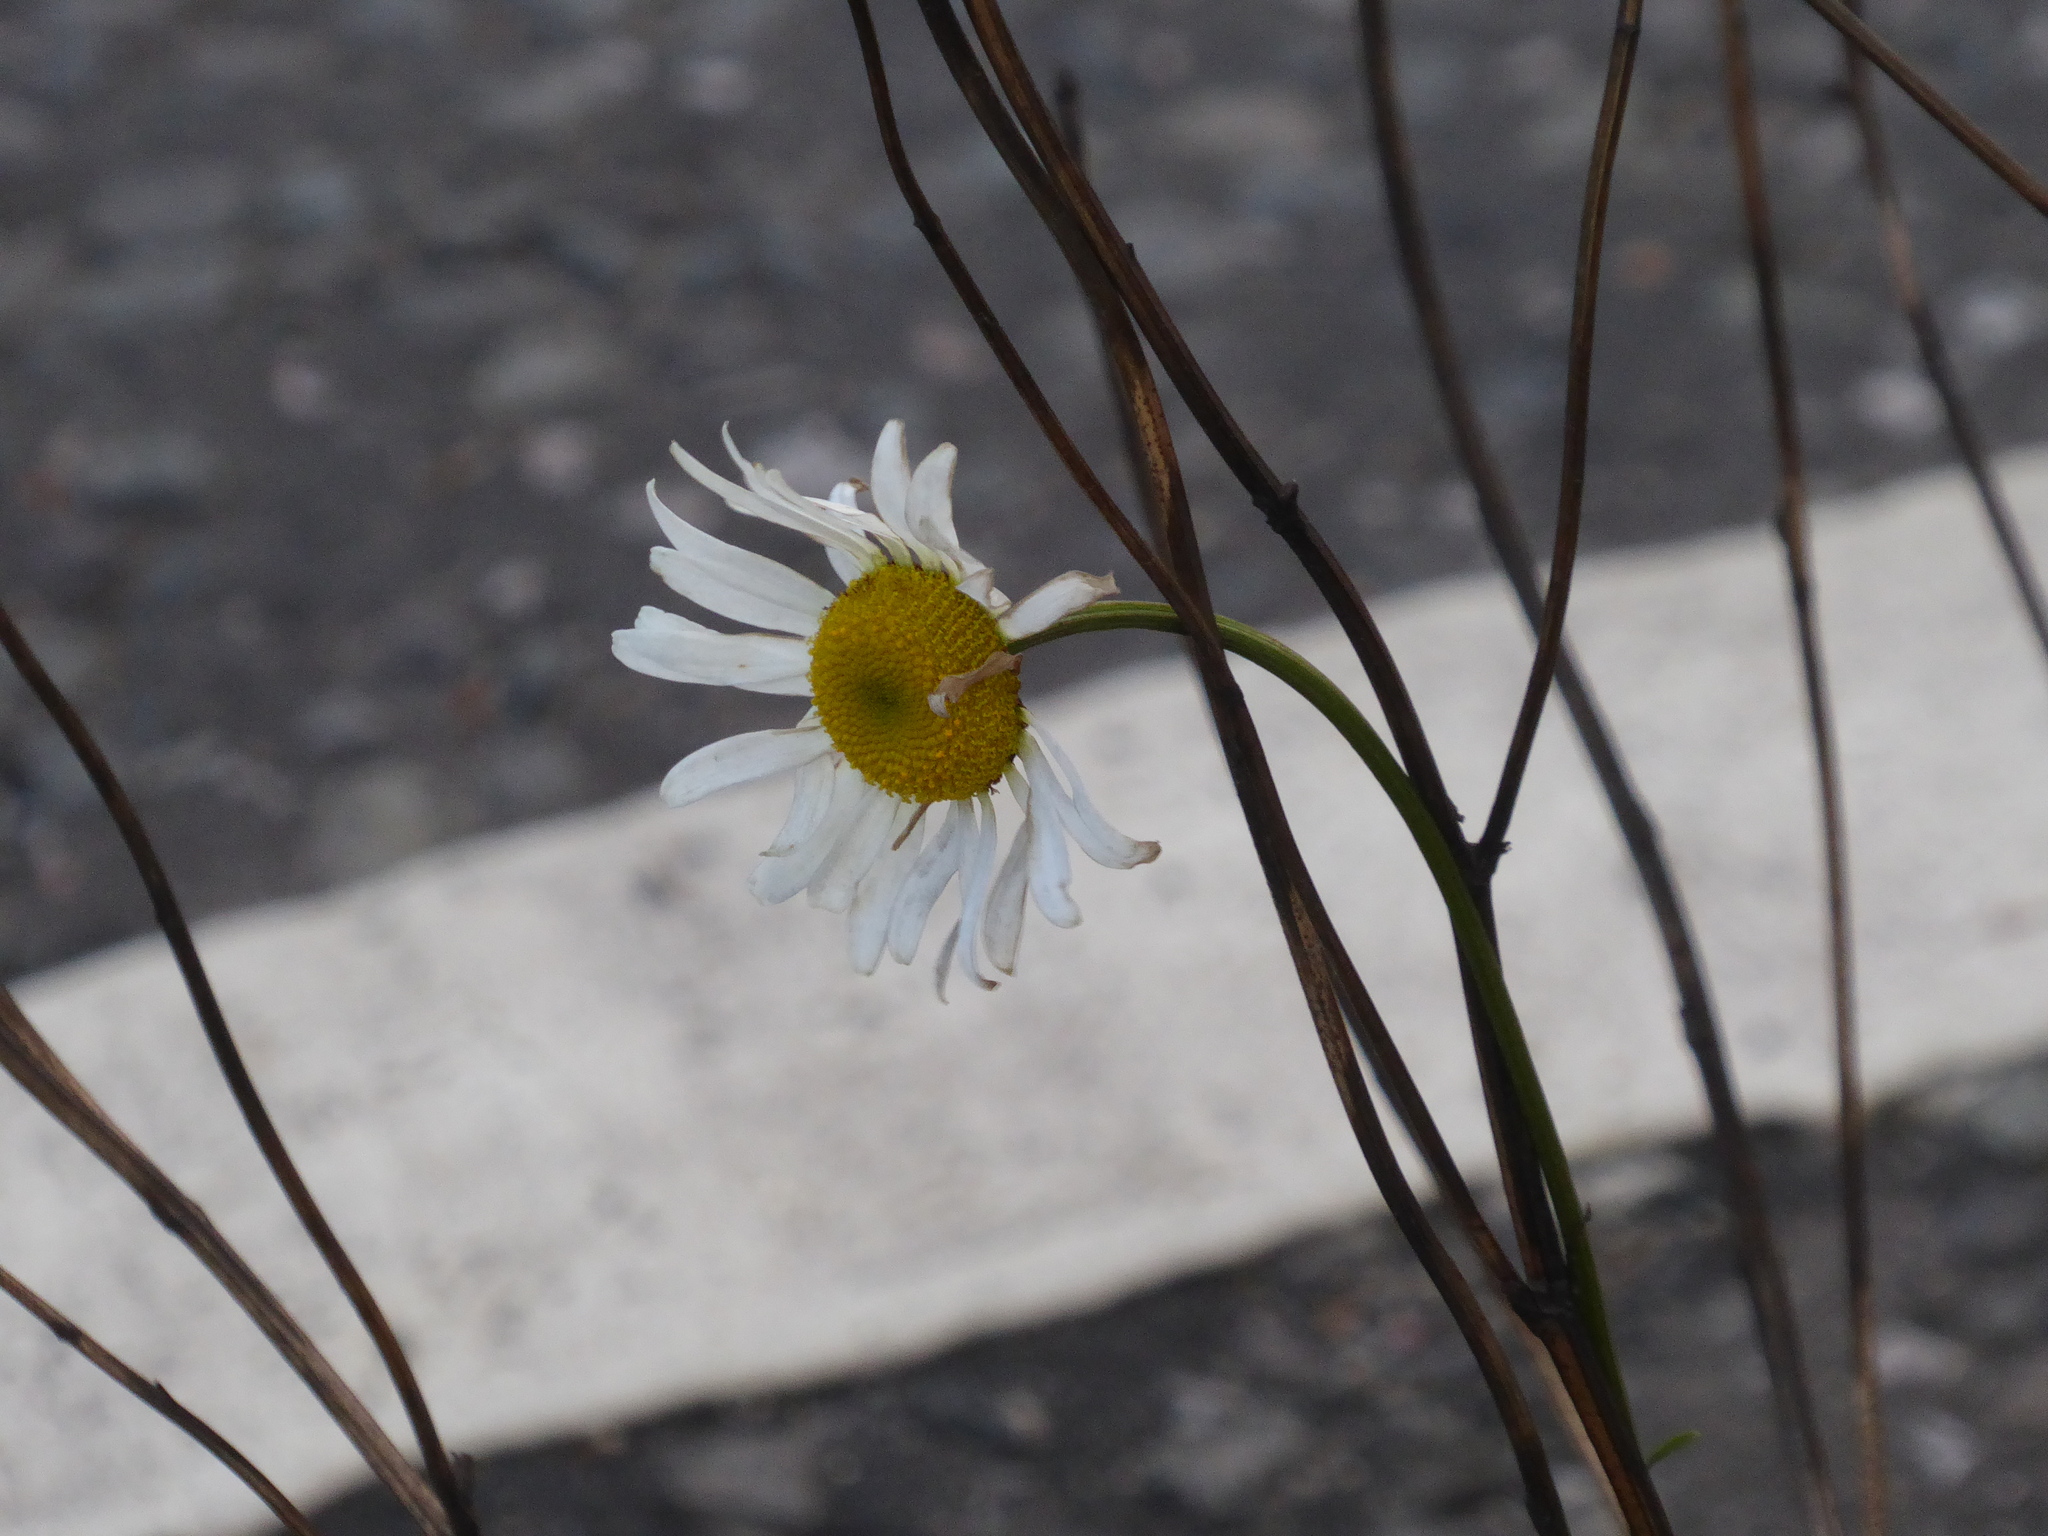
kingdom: Plantae
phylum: Tracheophyta
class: Magnoliopsida
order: Asterales
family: Asteraceae
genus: Leucanthemum
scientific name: Leucanthemum vulgare
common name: Oxeye daisy
